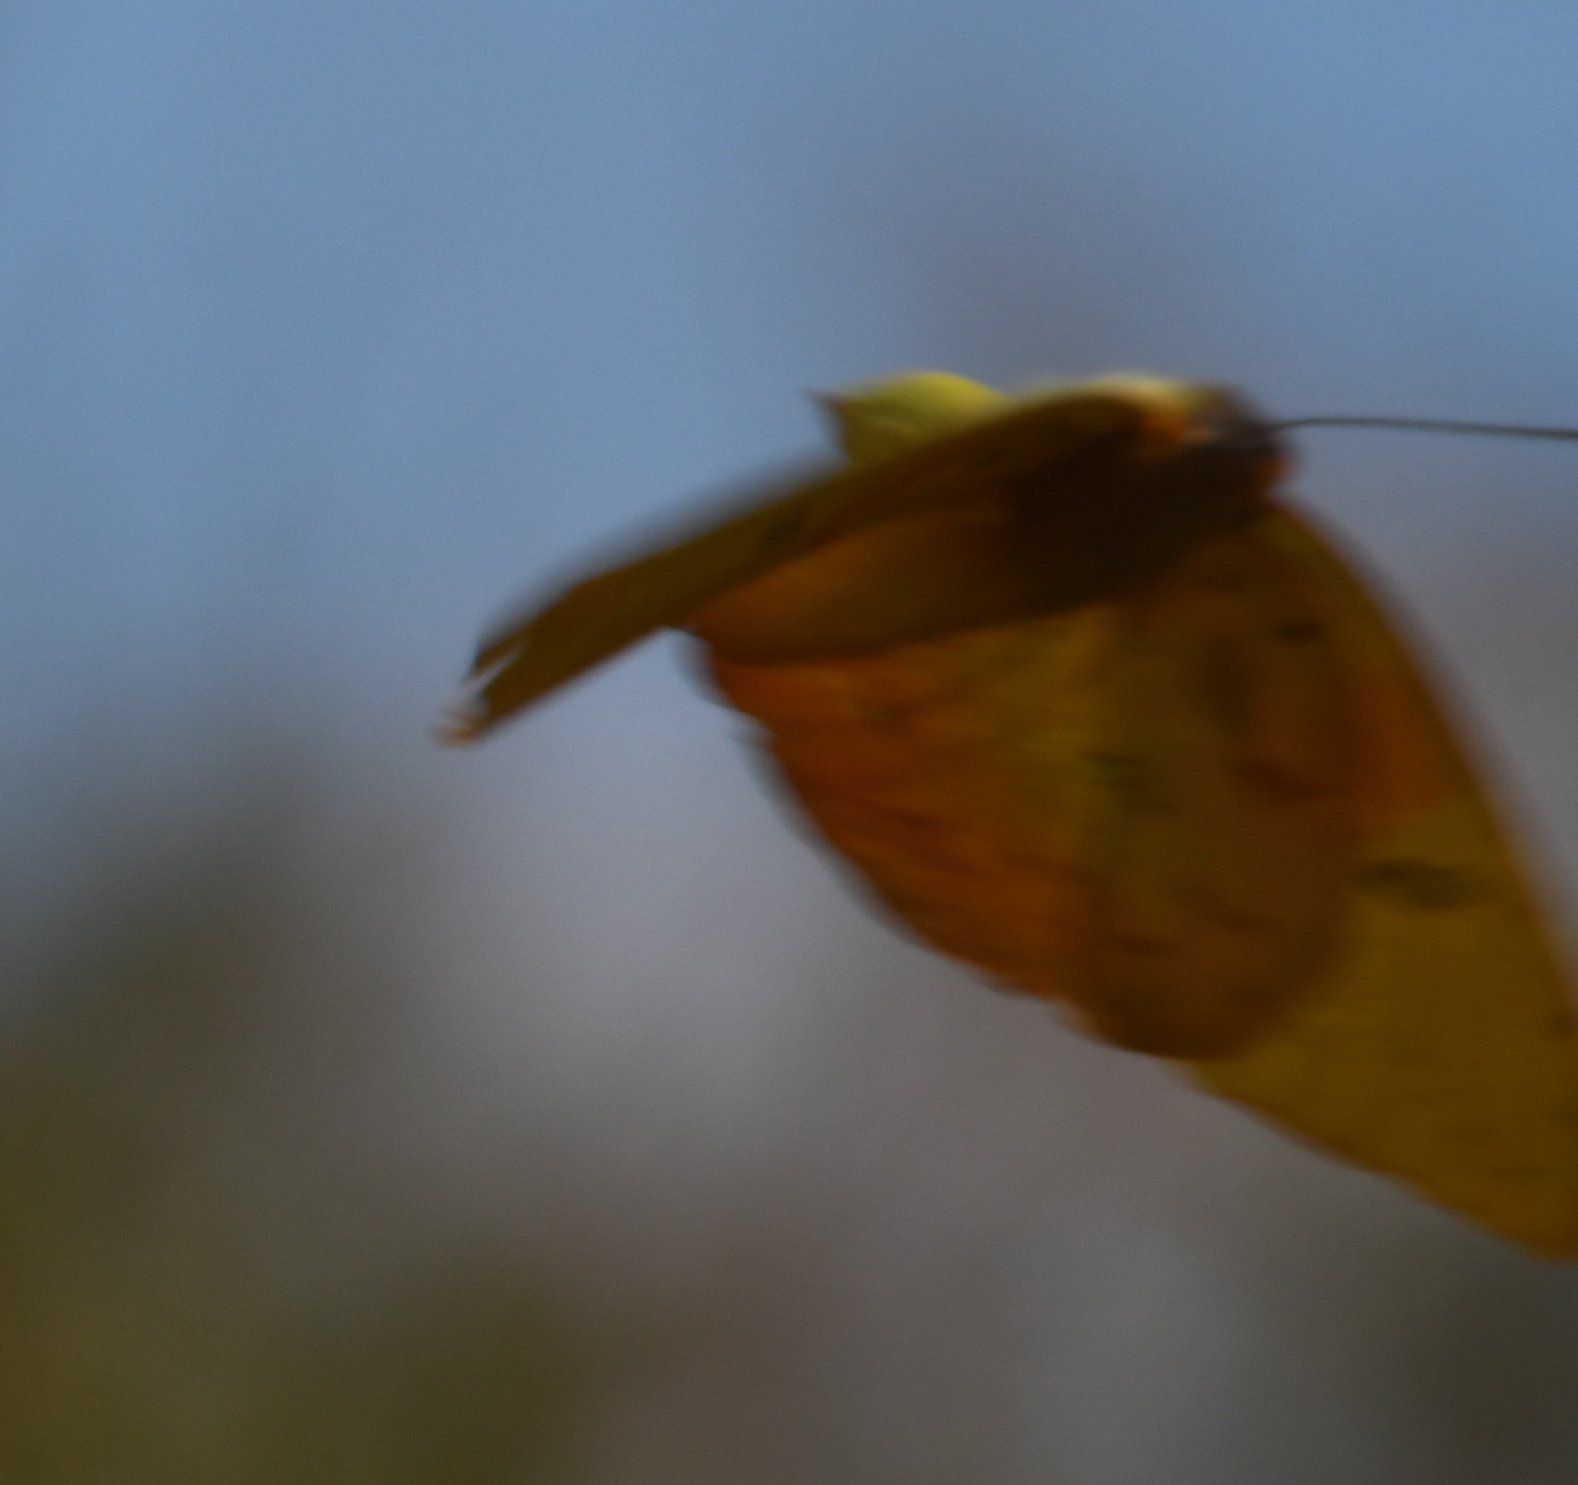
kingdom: Animalia
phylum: Arthropoda
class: Insecta
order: Lepidoptera
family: Pieridae
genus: Phoebis
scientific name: Phoebis philea
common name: Orange-barred giant sulphur
